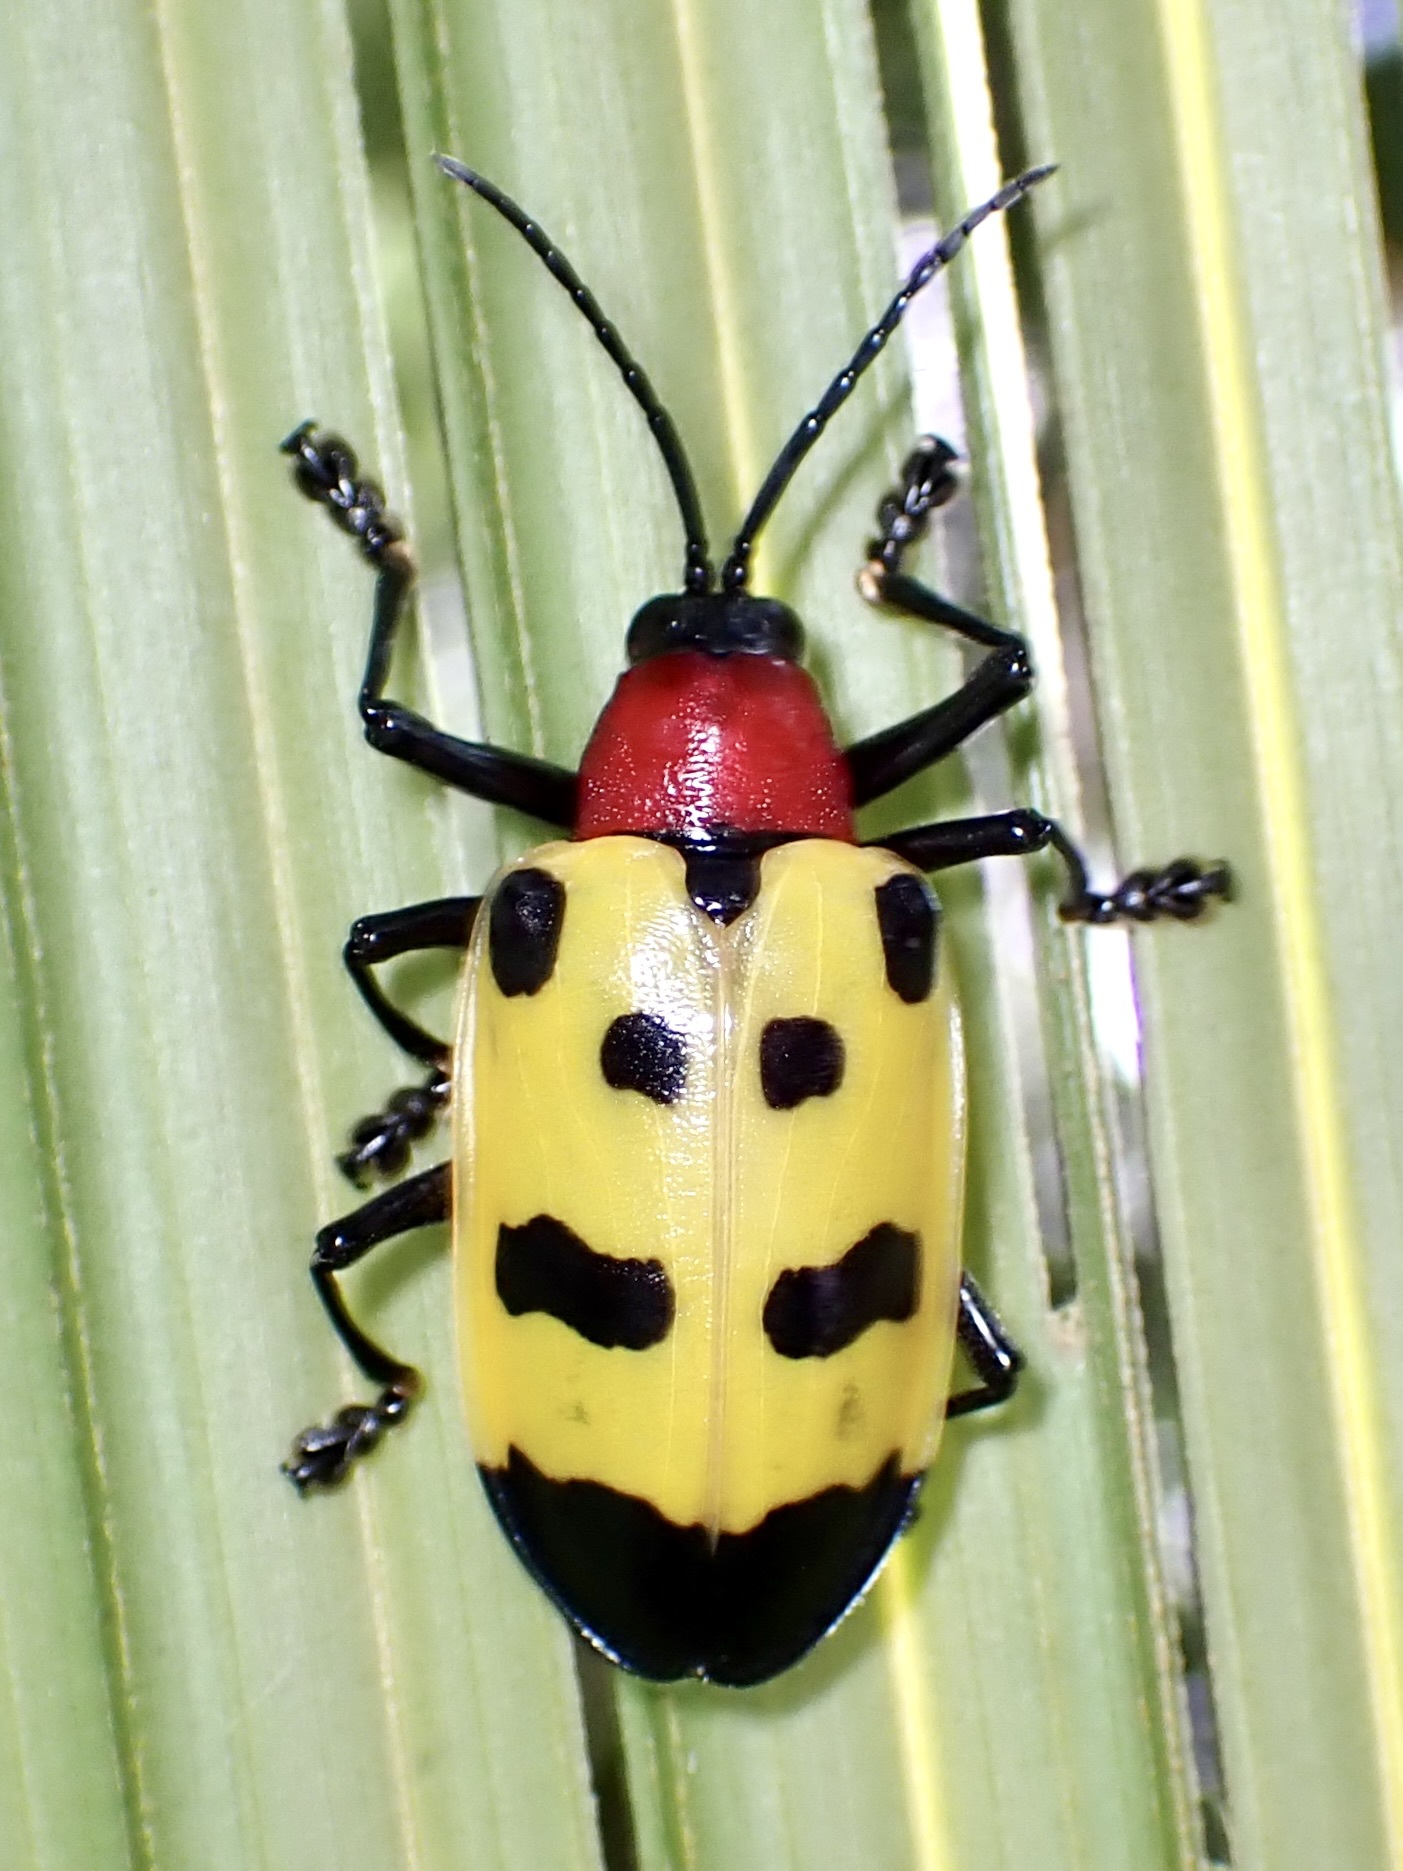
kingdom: Animalia
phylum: Arthropoda
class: Insecta
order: Coleoptera
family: Chrysomelidae
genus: Alurnus
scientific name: Alurnus ornatus
